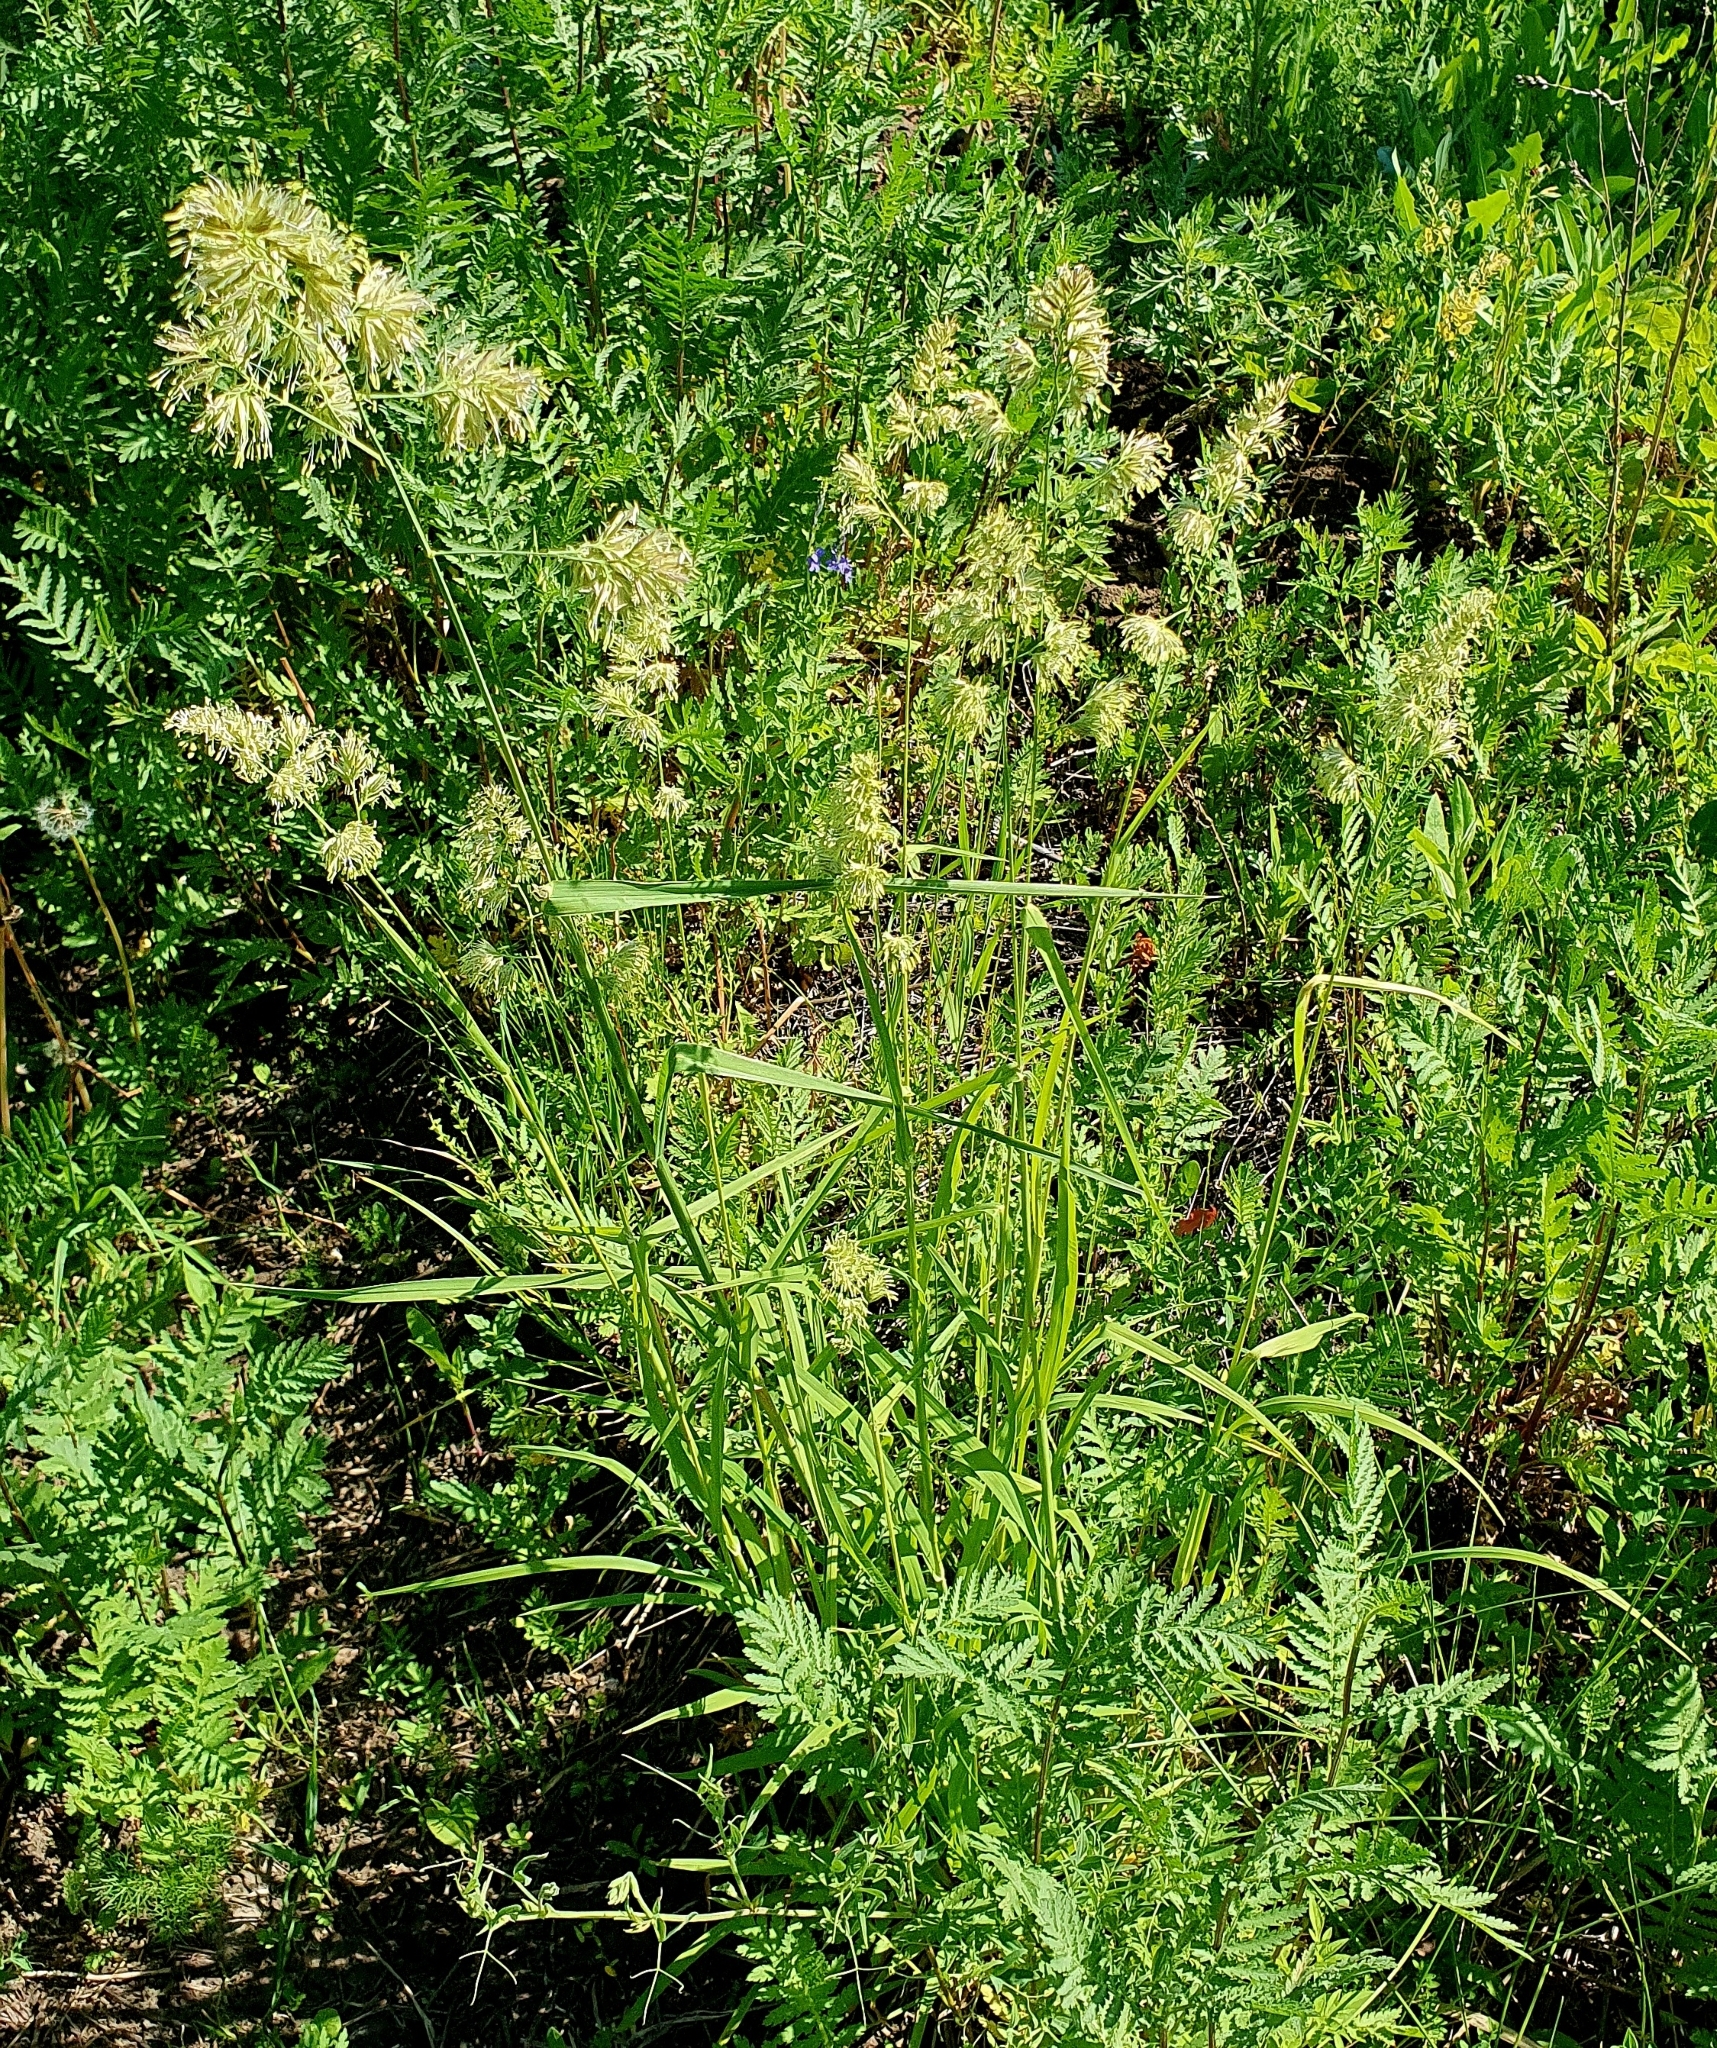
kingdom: Plantae
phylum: Tracheophyta
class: Liliopsida
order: Poales
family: Poaceae
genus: Dactylis
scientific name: Dactylis glomerata
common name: Orchardgrass
